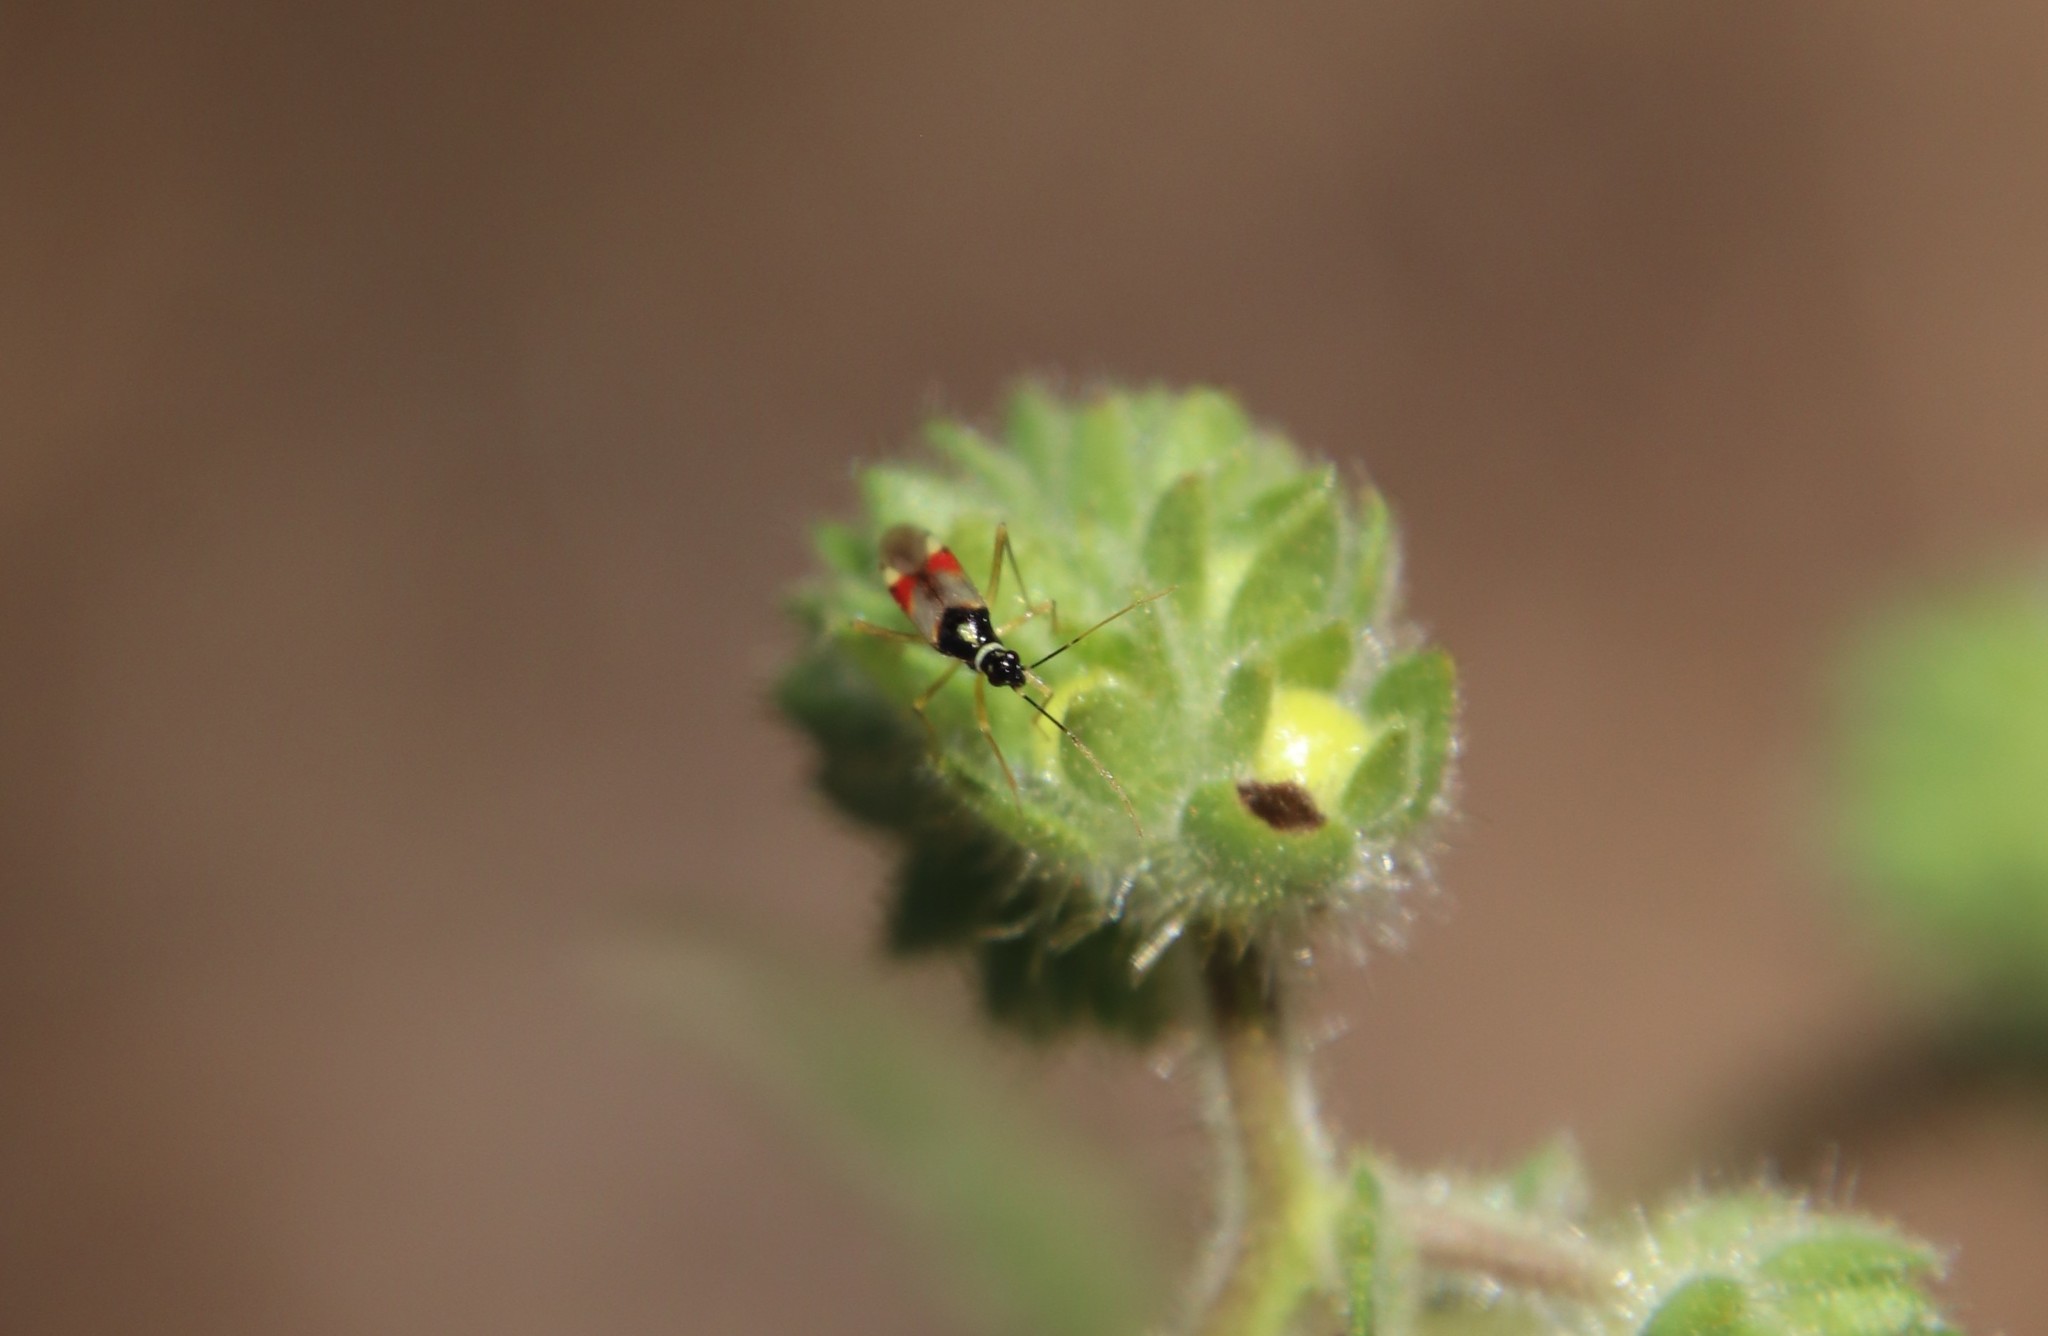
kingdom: Animalia
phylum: Arthropoda
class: Insecta
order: Hemiptera
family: Miridae
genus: Tupiocoris
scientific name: Tupiocoris californicus
